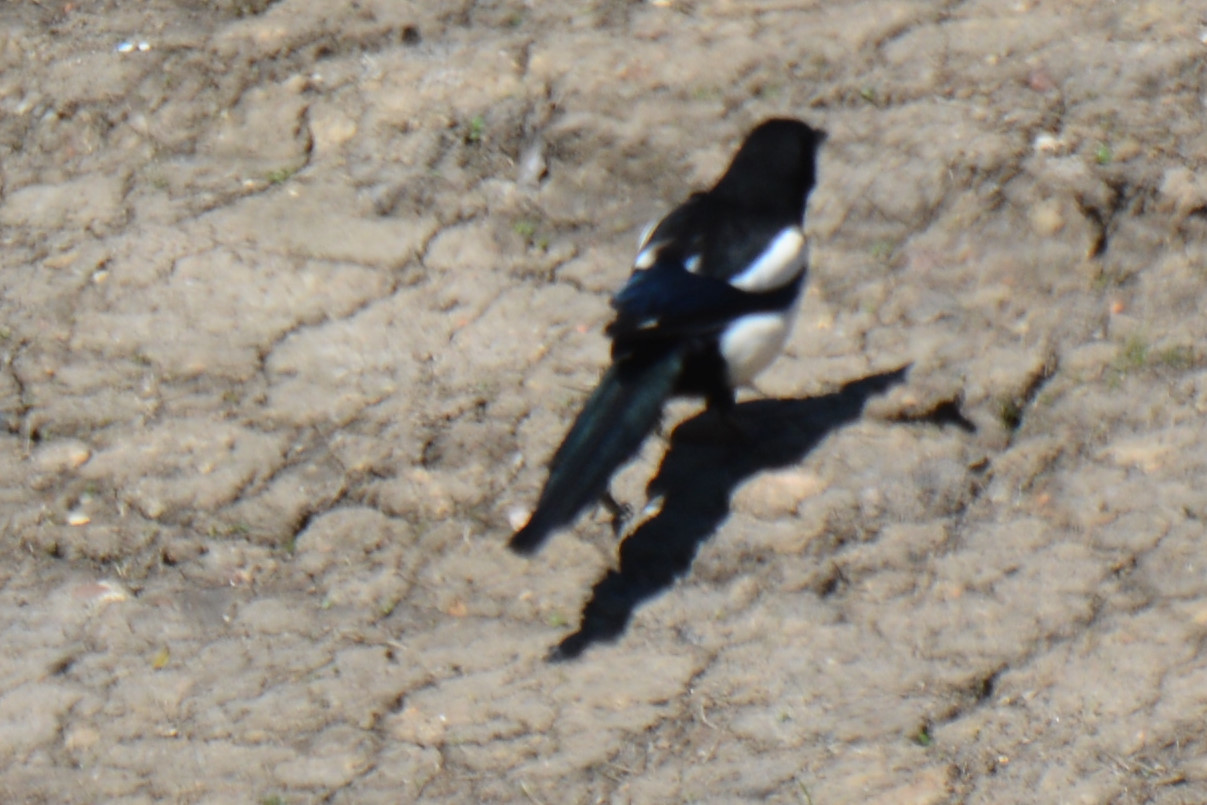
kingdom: Animalia
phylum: Chordata
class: Aves
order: Passeriformes
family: Corvidae
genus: Pica
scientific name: Pica pica
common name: Eurasian magpie
